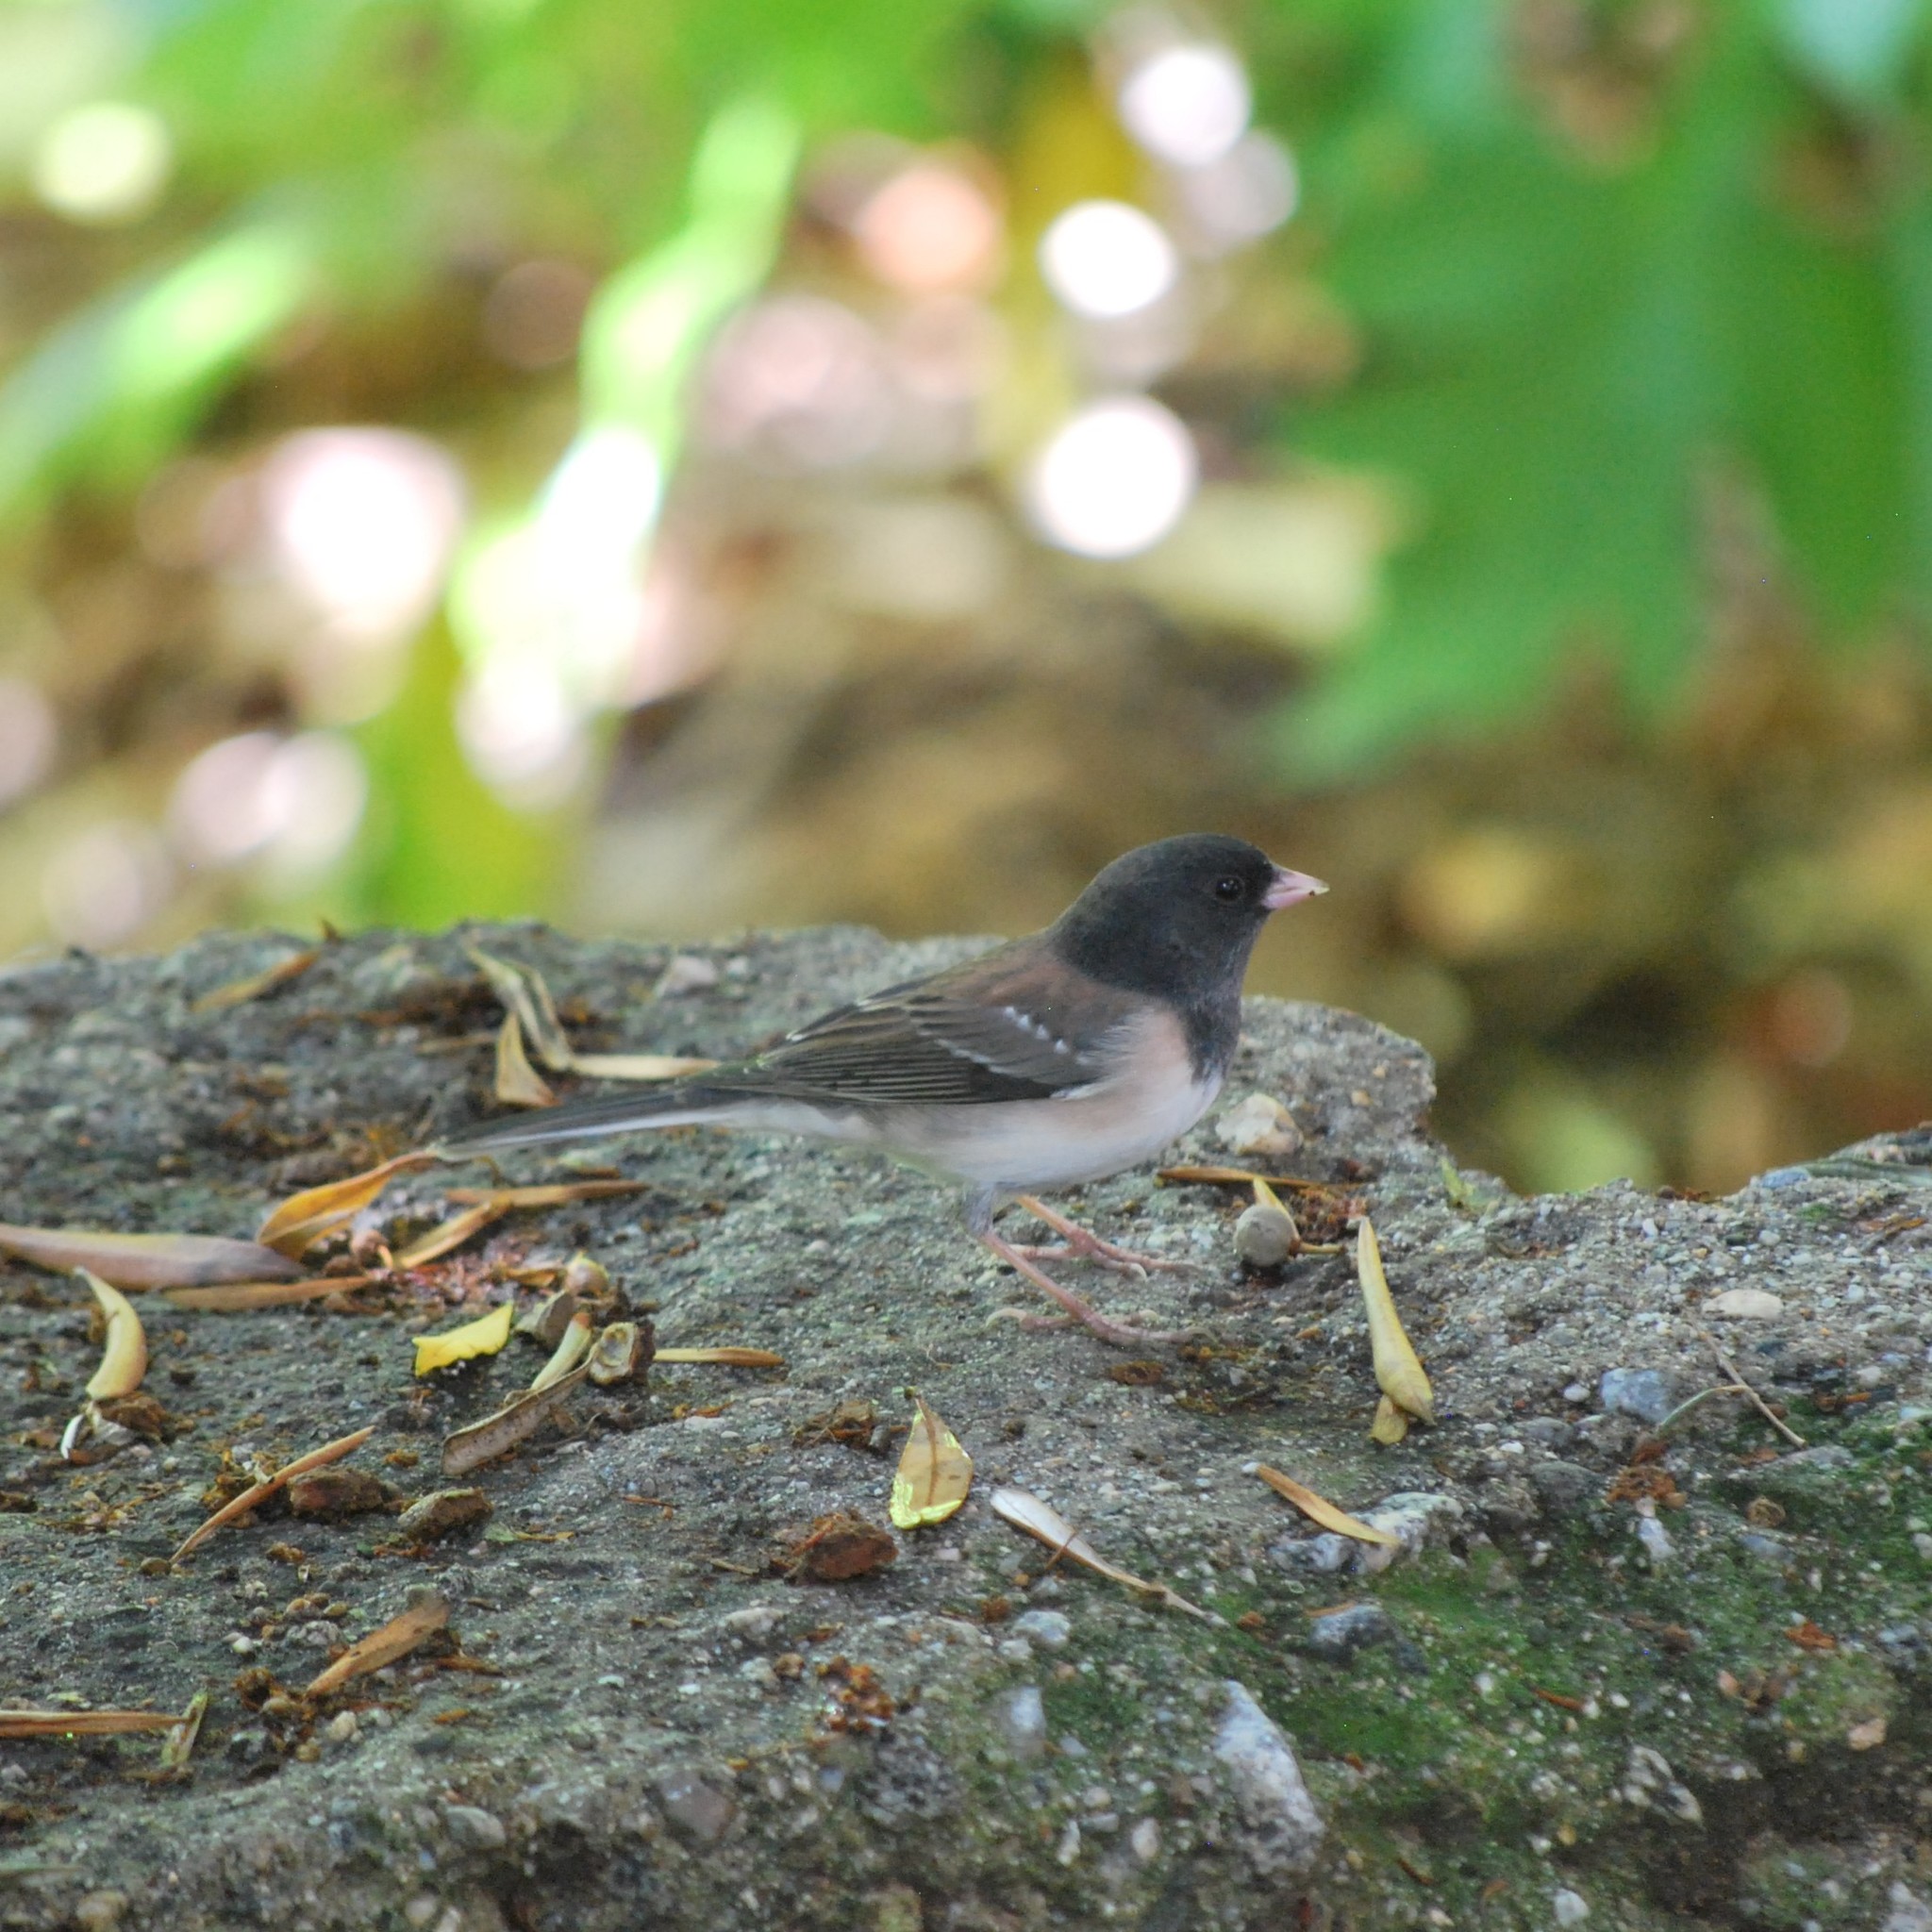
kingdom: Animalia
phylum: Chordata
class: Aves
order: Passeriformes
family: Passerellidae
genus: Junco
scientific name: Junco hyemalis
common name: Dark-eyed junco
